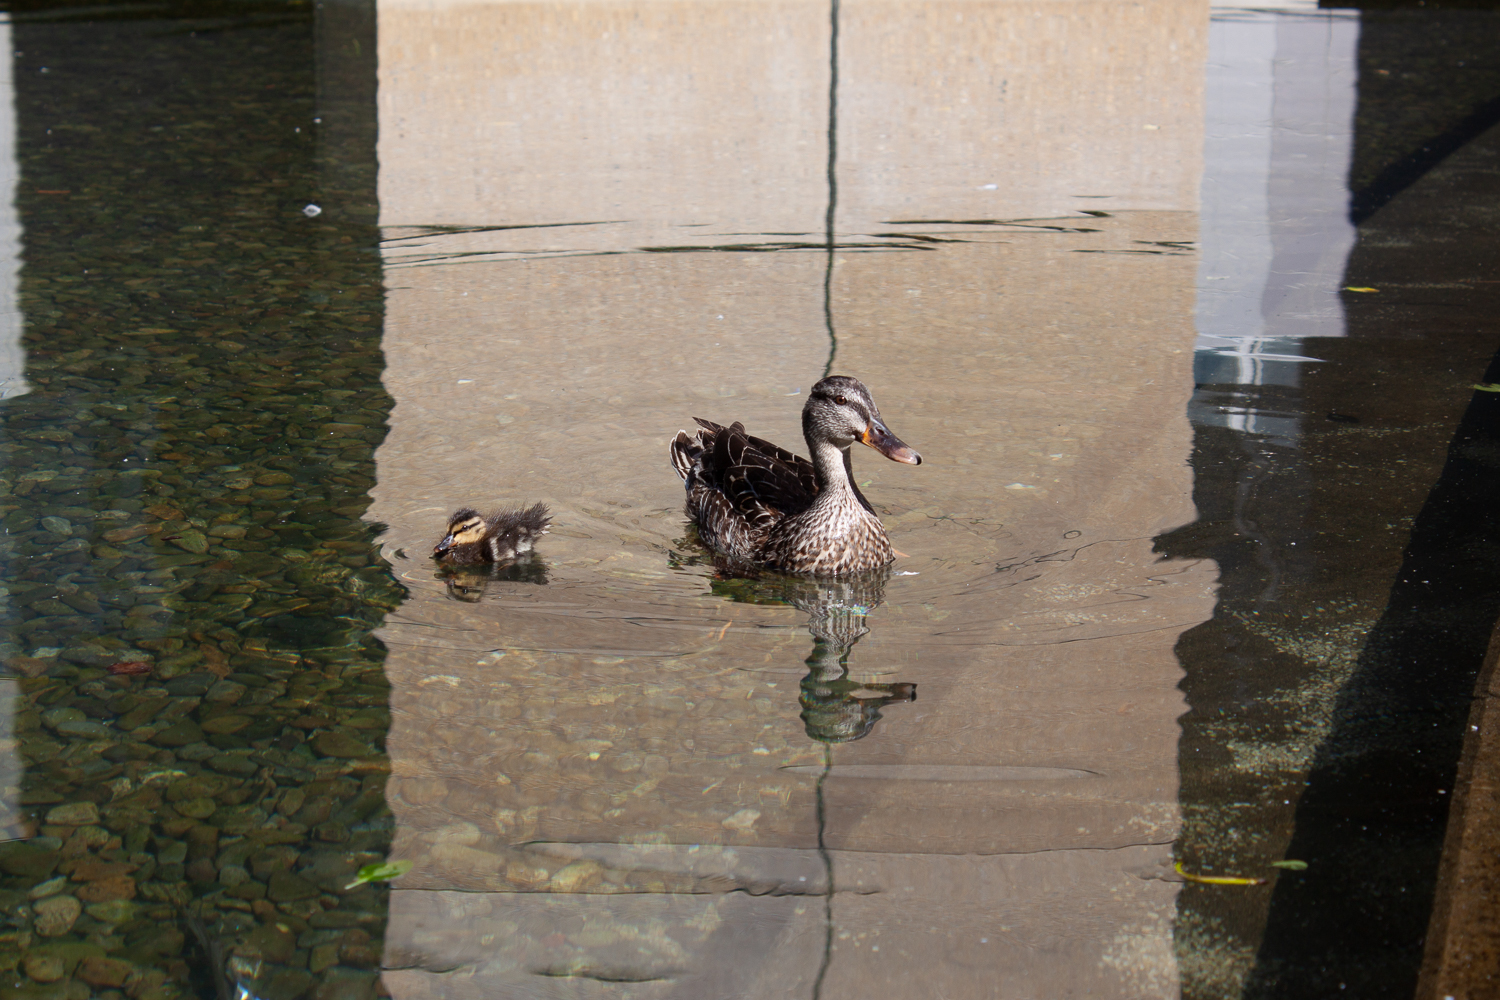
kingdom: Animalia
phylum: Chordata
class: Aves
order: Anseriformes
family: Anatidae
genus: Anas
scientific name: Anas
